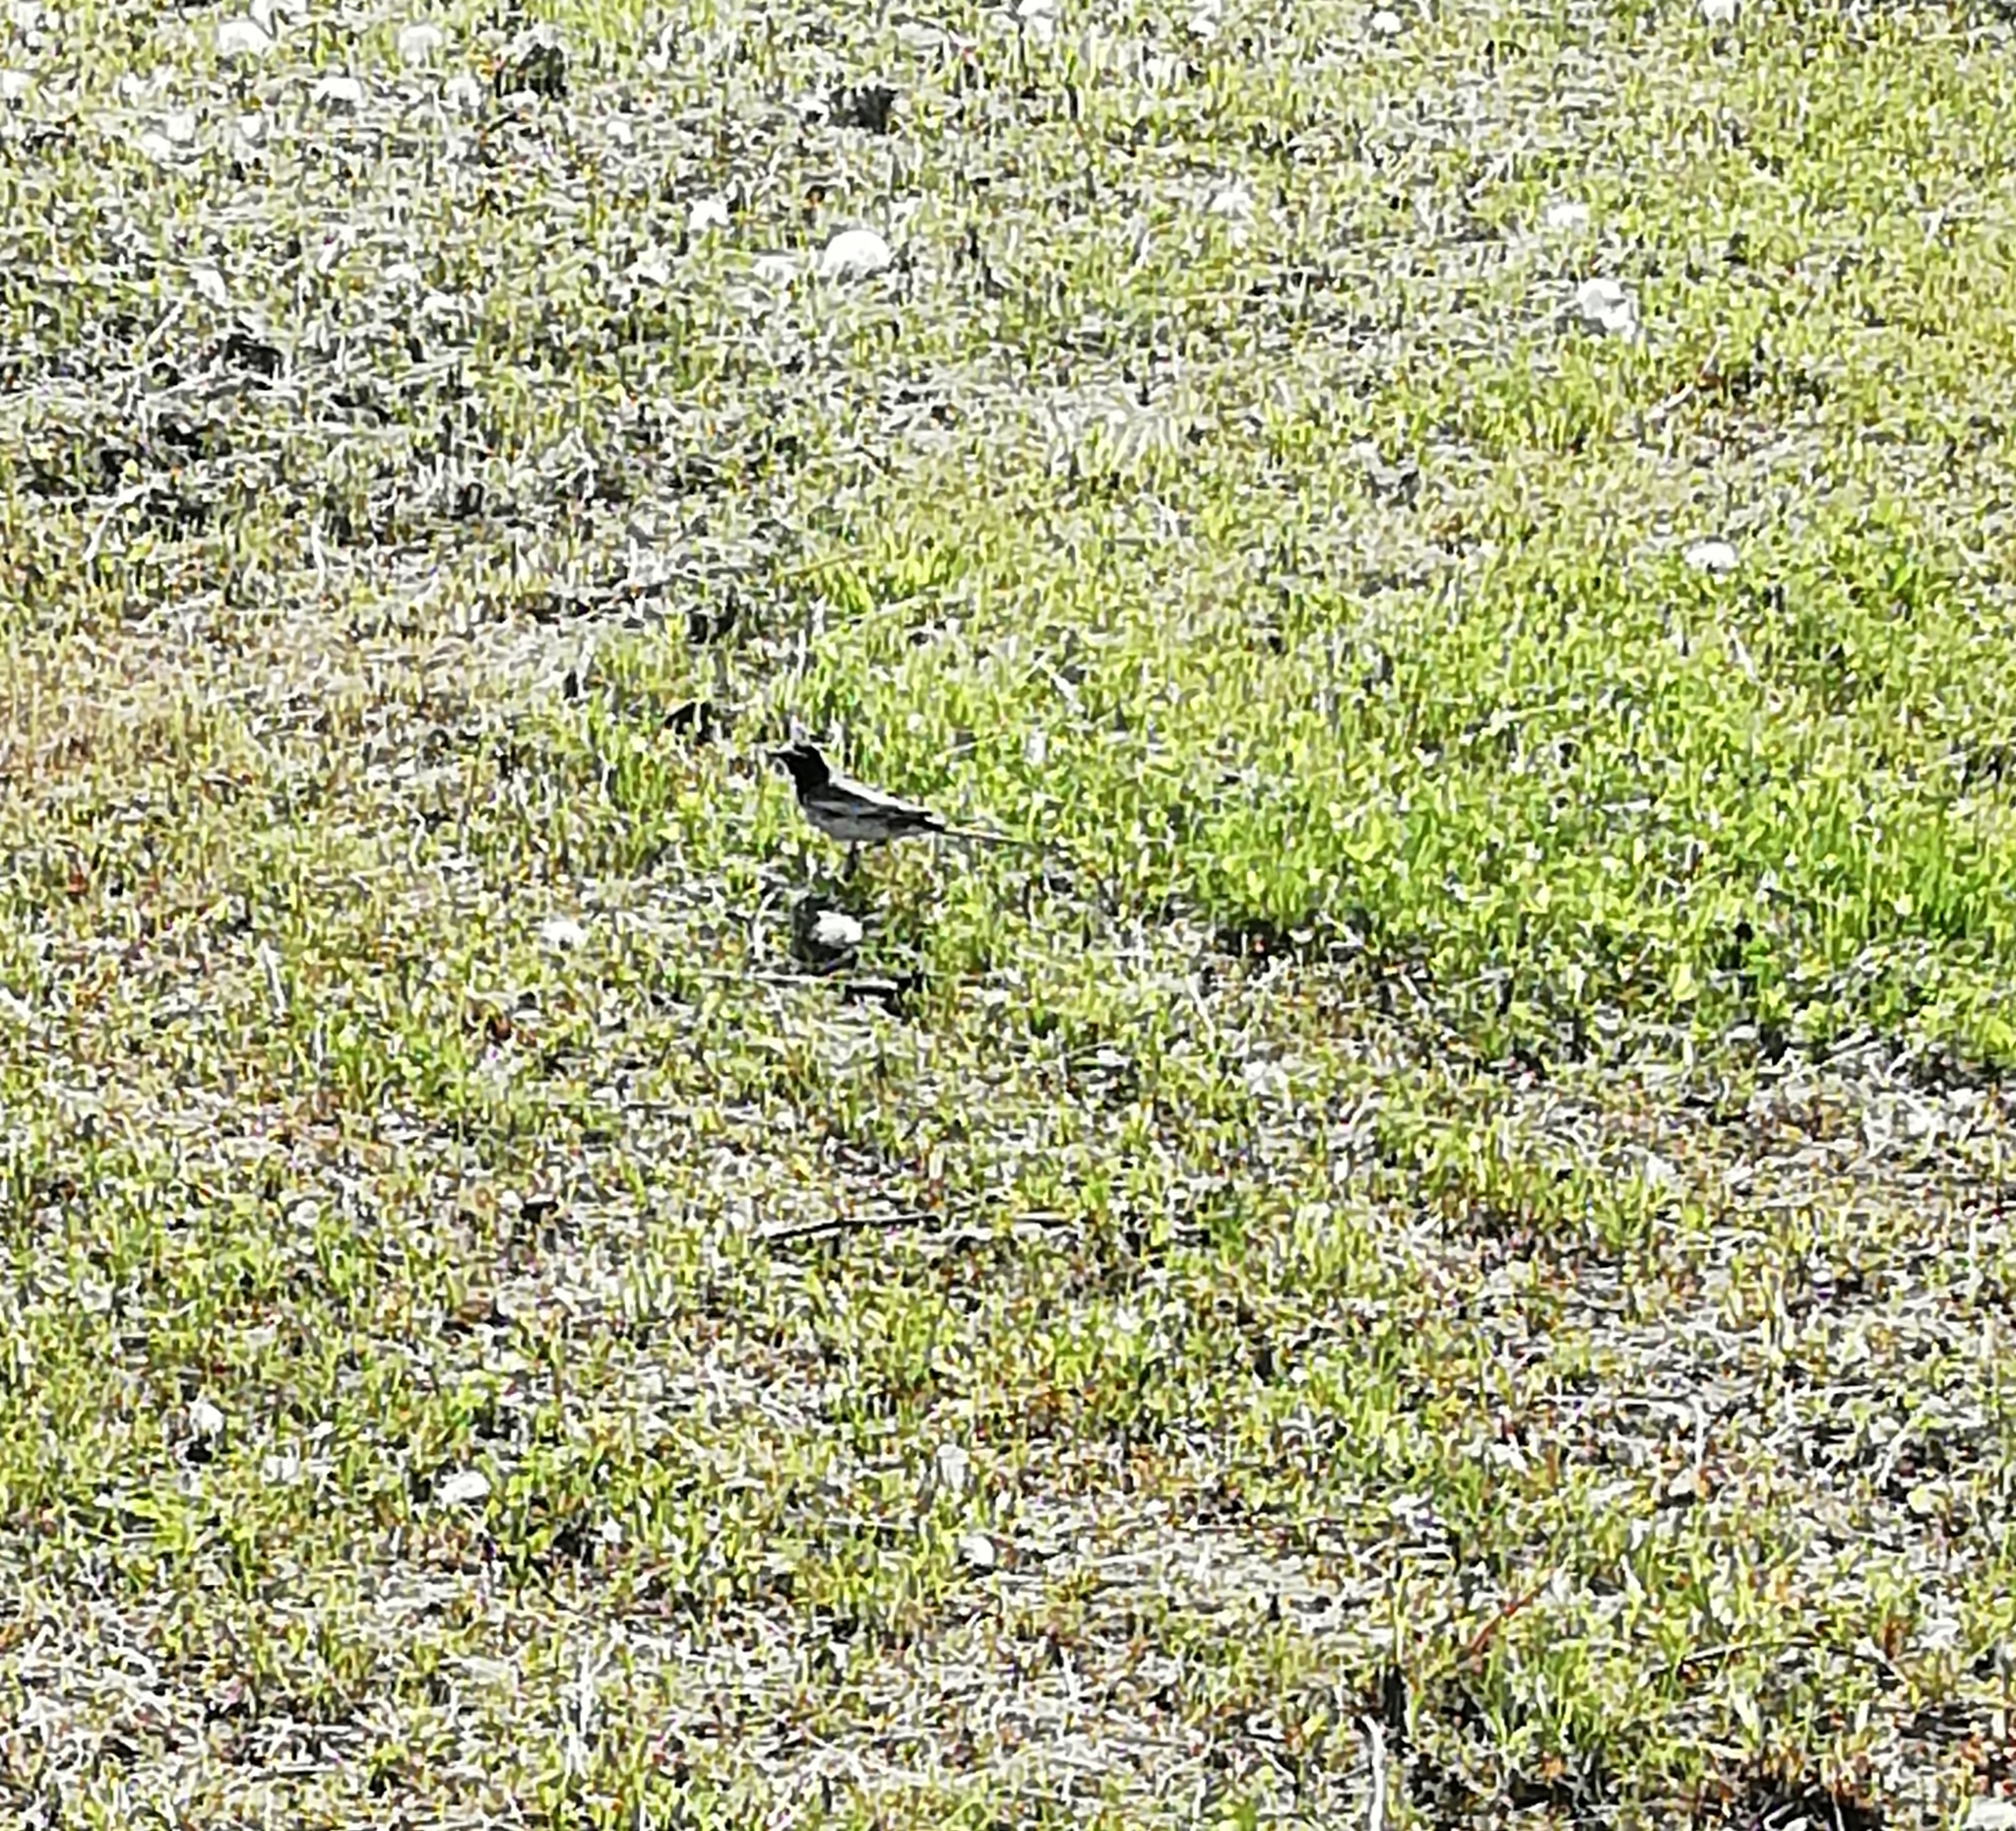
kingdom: Animalia
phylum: Chordata
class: Aves
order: Passeriformes
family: Motacillidae
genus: Motacilla
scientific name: Motacilla alba
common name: White wagtail
